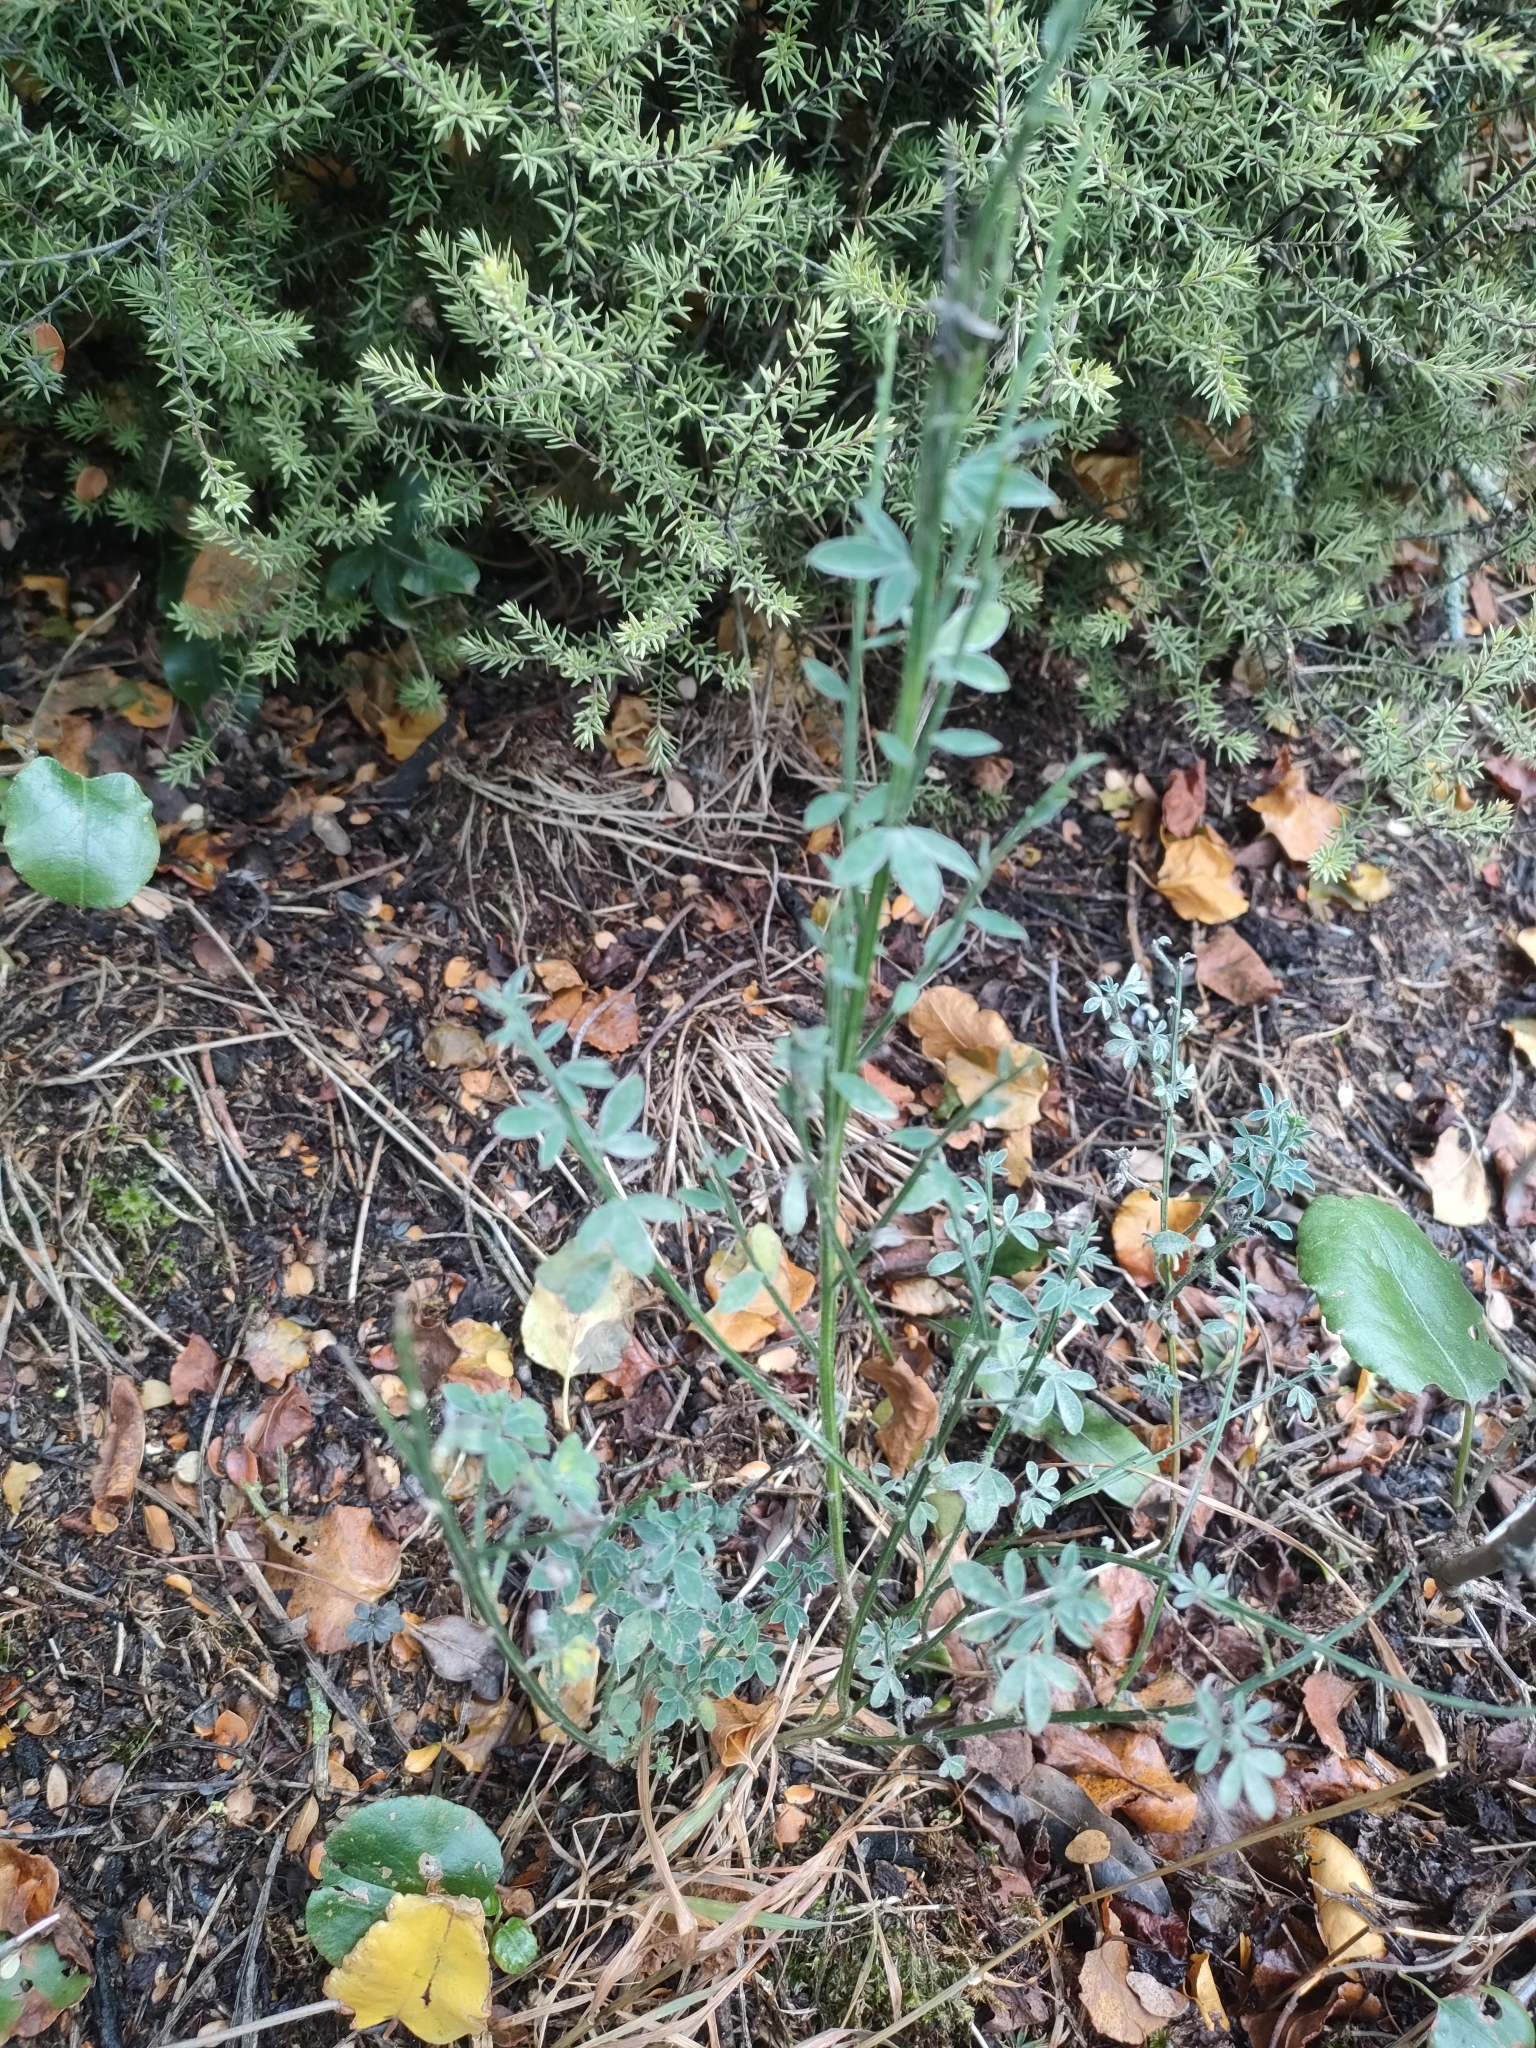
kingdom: Plantae
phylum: Tracheophyta
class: Magnoliopsida
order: Fabales
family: Fabaceae
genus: Cytisus
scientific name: Cytisus scoparius
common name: Scotch broom
